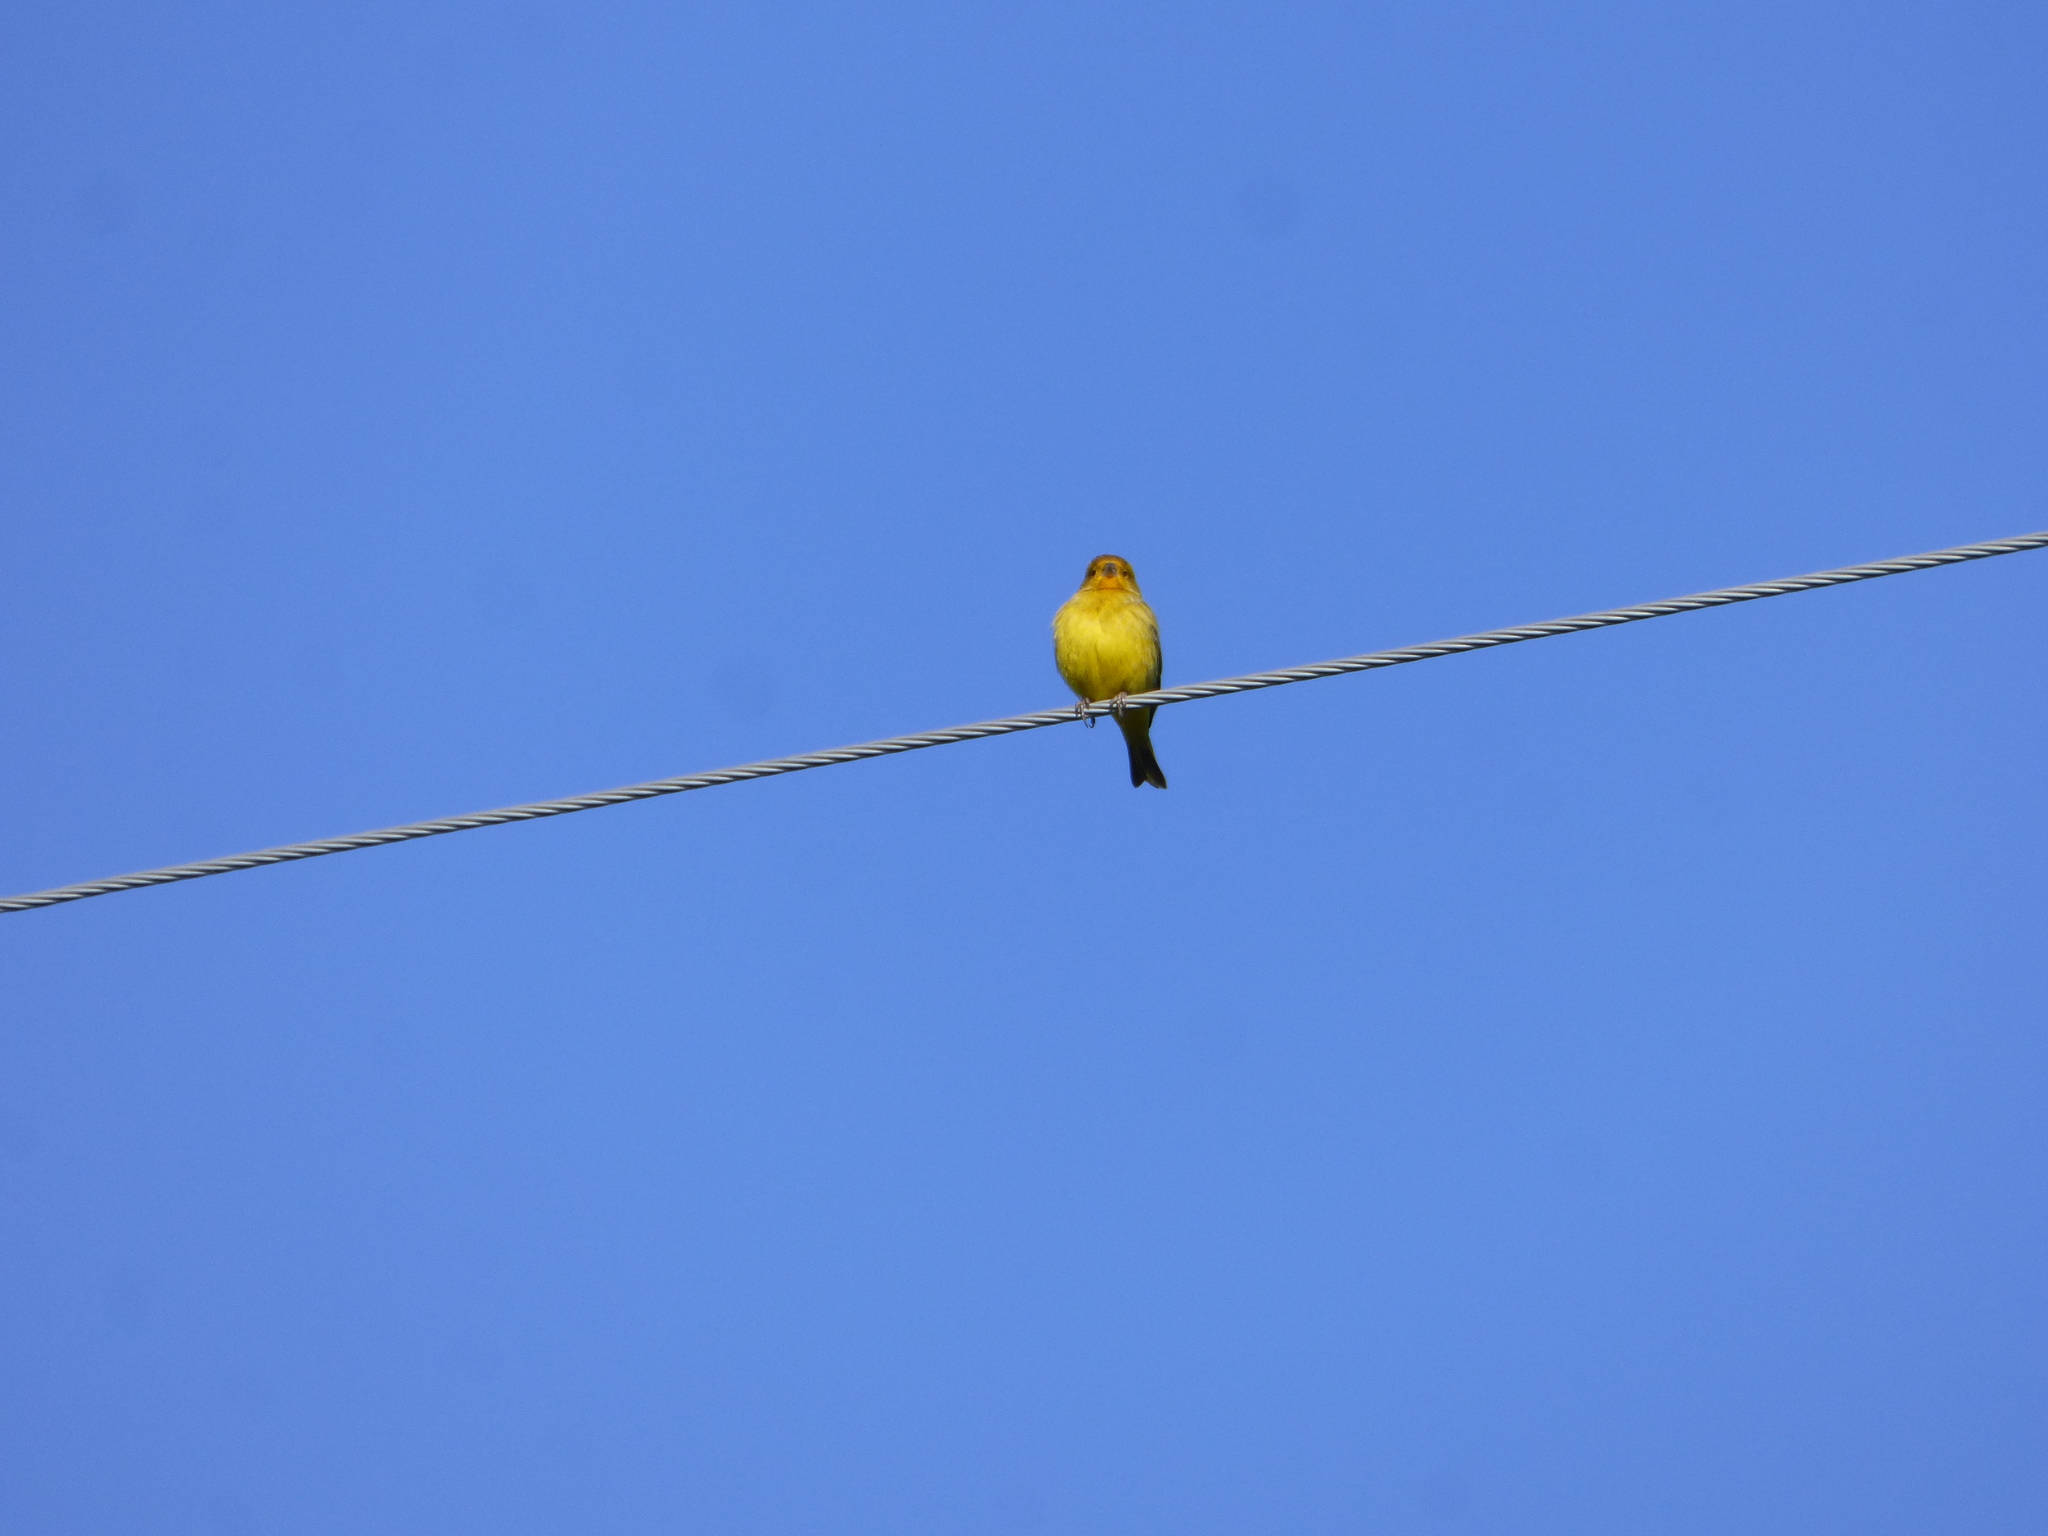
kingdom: Animalia
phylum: Chordata
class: Aves
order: Passeriformes
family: Thraupidae
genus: Sicalis
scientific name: Sicalis flaveola
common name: Saffron finch
